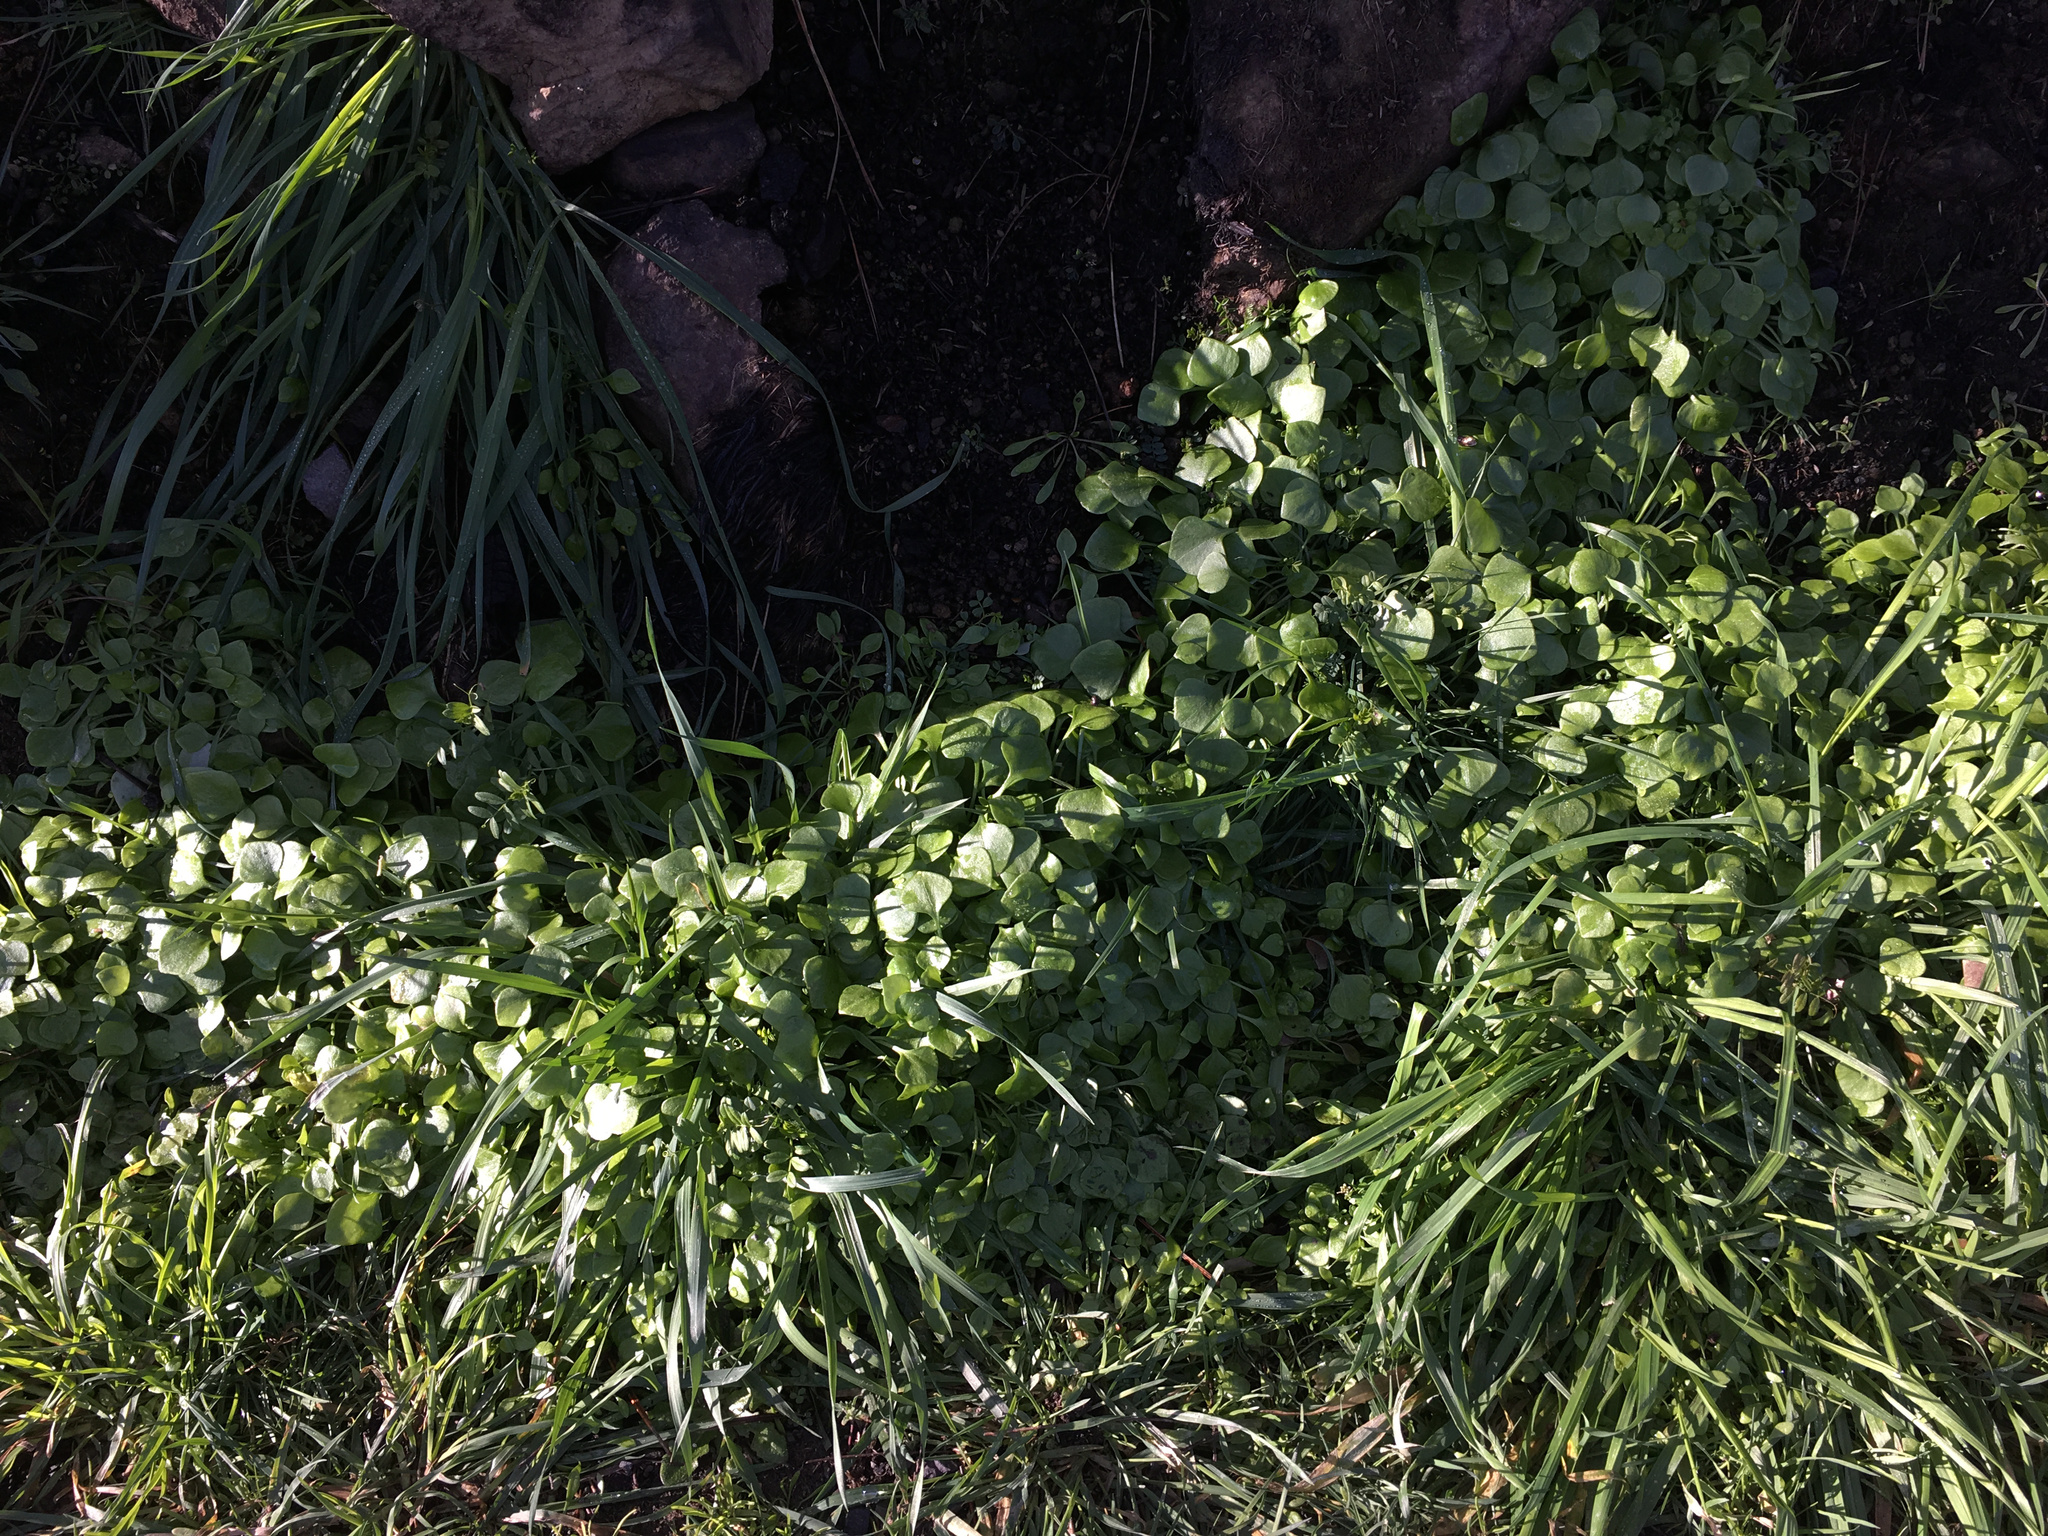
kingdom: Plantae
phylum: Tracheophyta
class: Magnoliopsida
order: Caryophyllales
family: Montiaceae
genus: Claytonia
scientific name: Claytonia perfoliata
